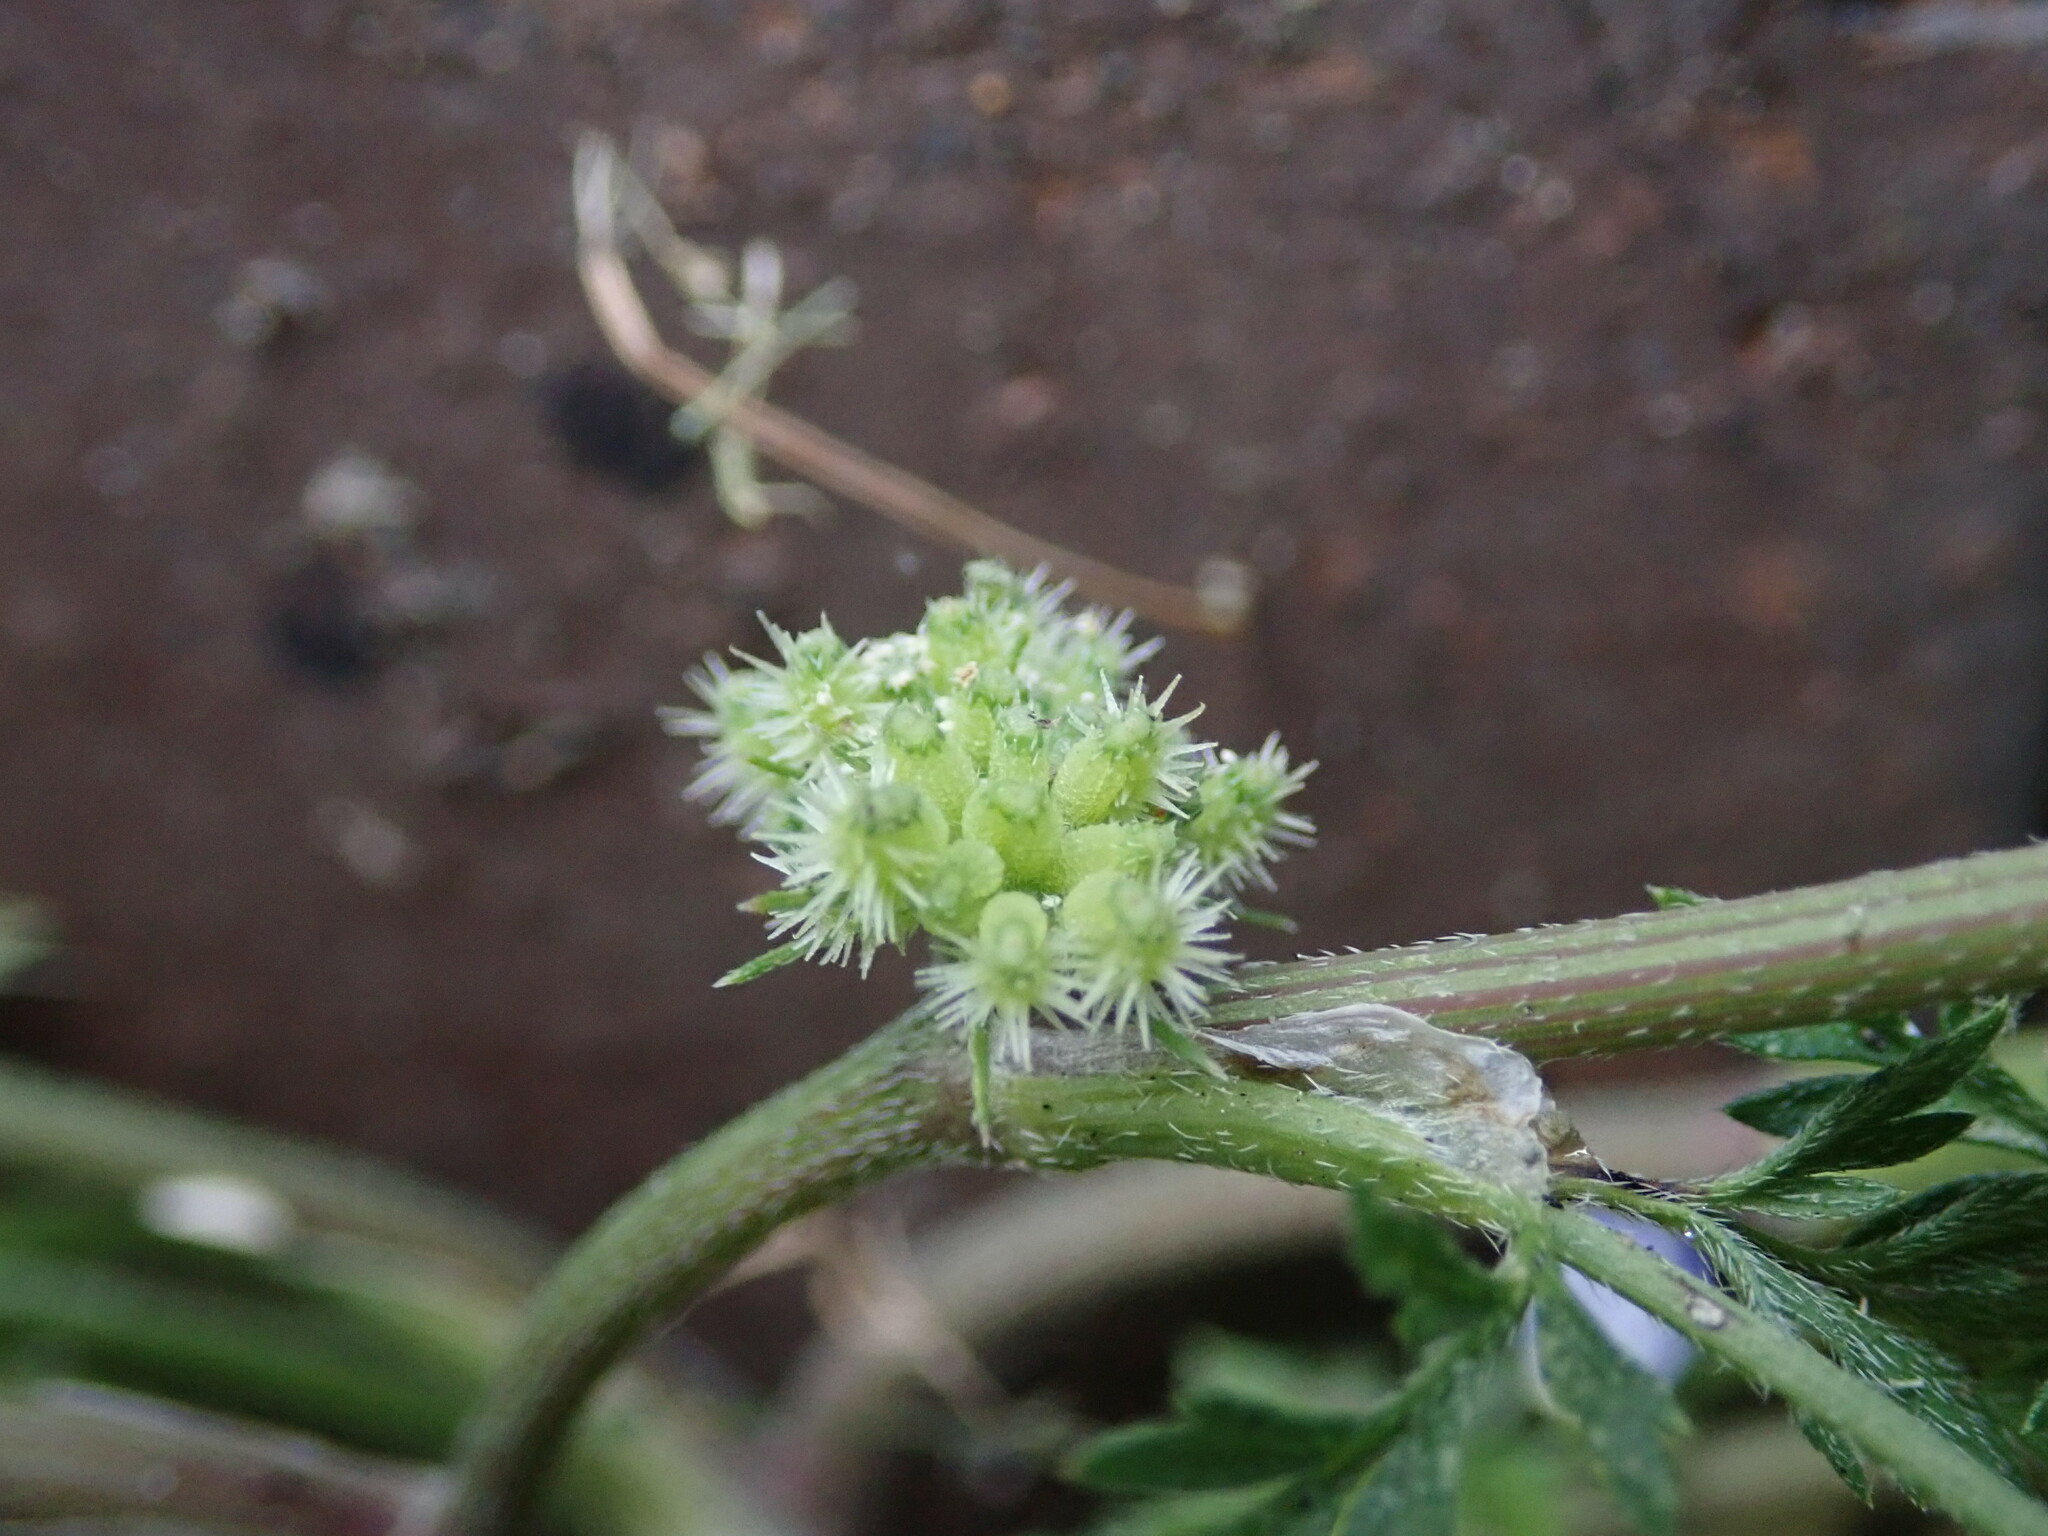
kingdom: Plantae
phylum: Tracheophyta
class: Magnoliopsida
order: Apiales
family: Apiaceae
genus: Torilis
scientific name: Torilis nodosa
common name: Knotted hedge-parsley
